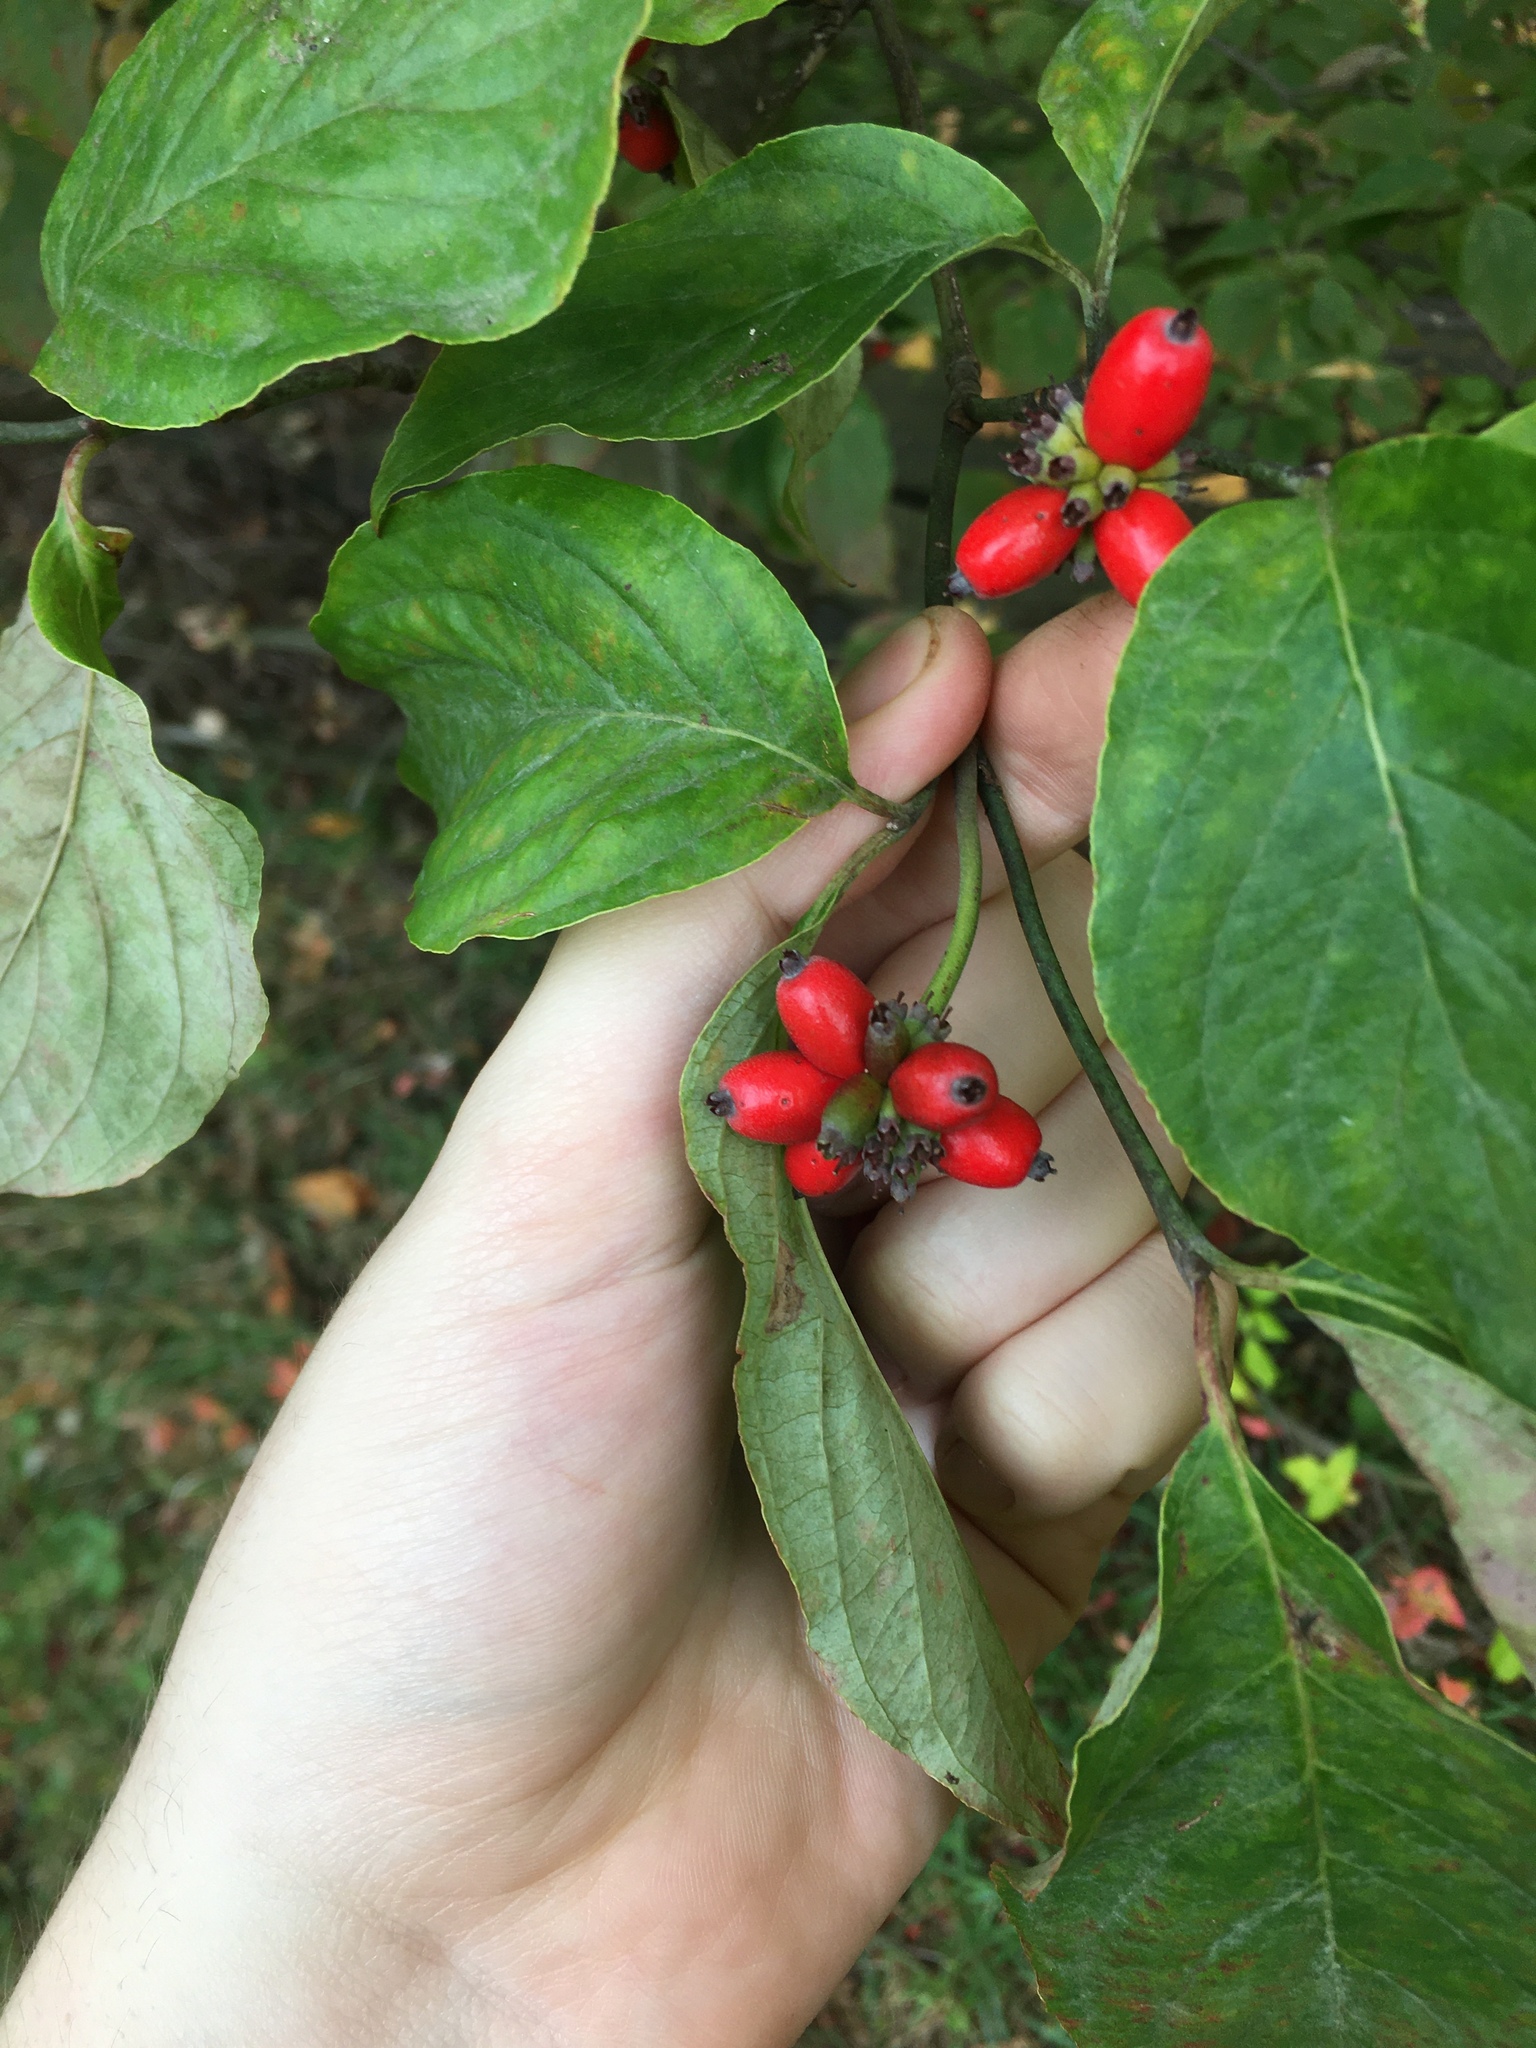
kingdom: Plantae
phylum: Tracheophyta
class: Magnoliopsida
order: Cornales
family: Cornaceae
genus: Cornus
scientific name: Cornus florida
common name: Flowering dogwood
